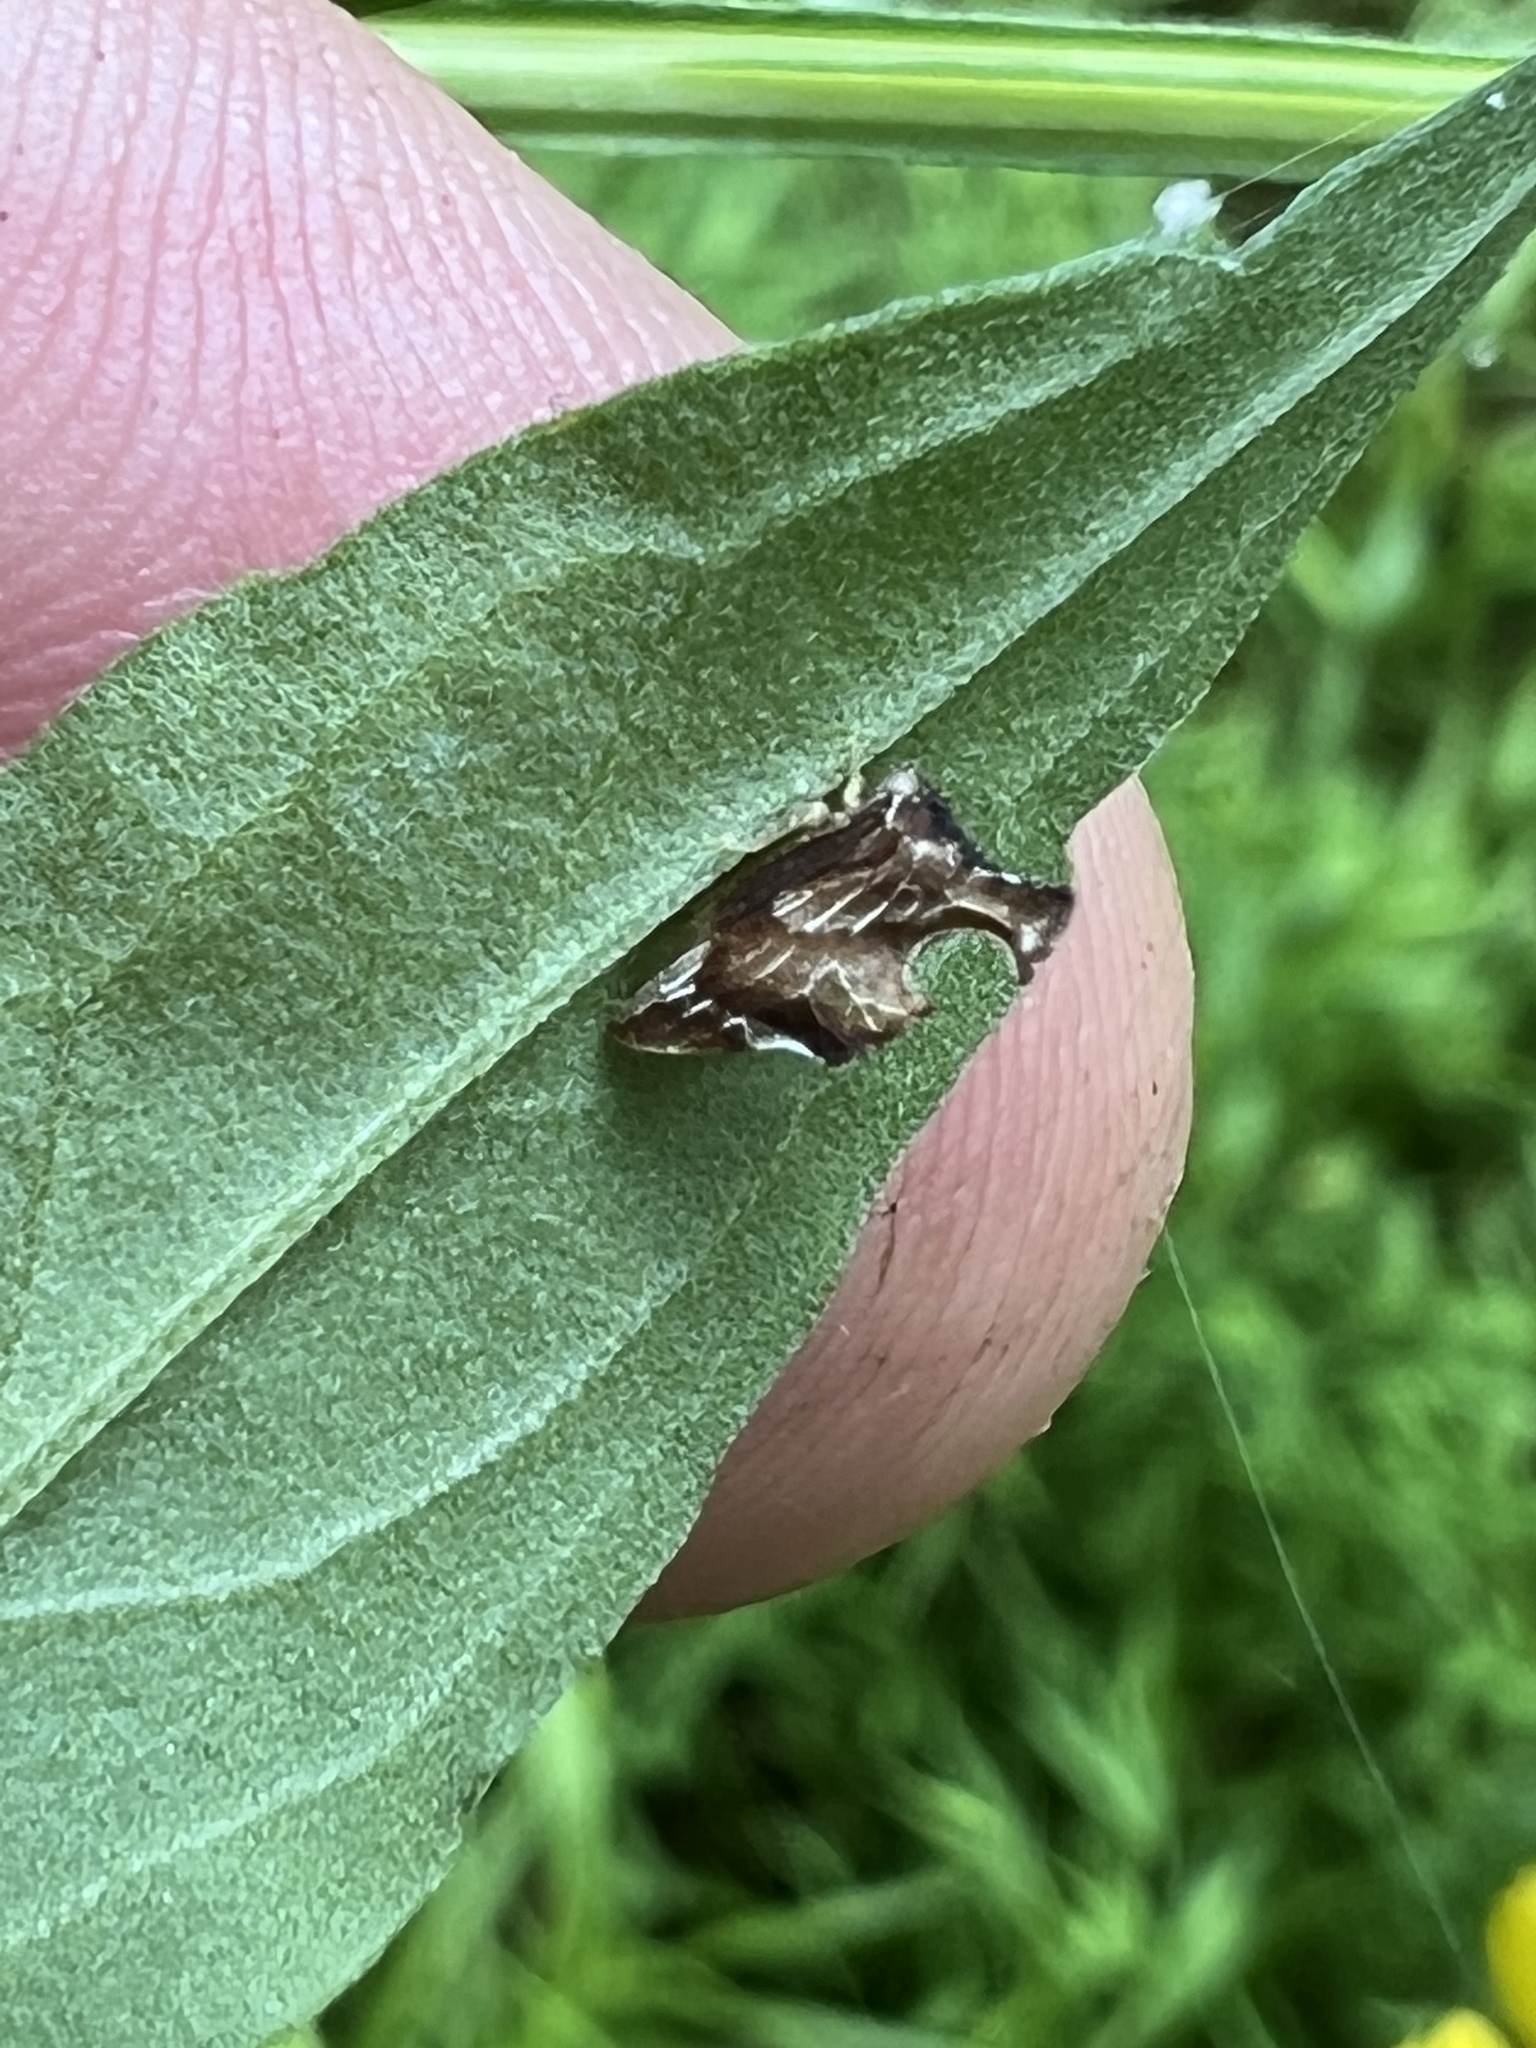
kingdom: Animalia
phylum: Arthropoda
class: Insecta
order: Hemiptera
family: Membracidae
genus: Entylia
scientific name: Entylia carinata
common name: Keeled treehopper
